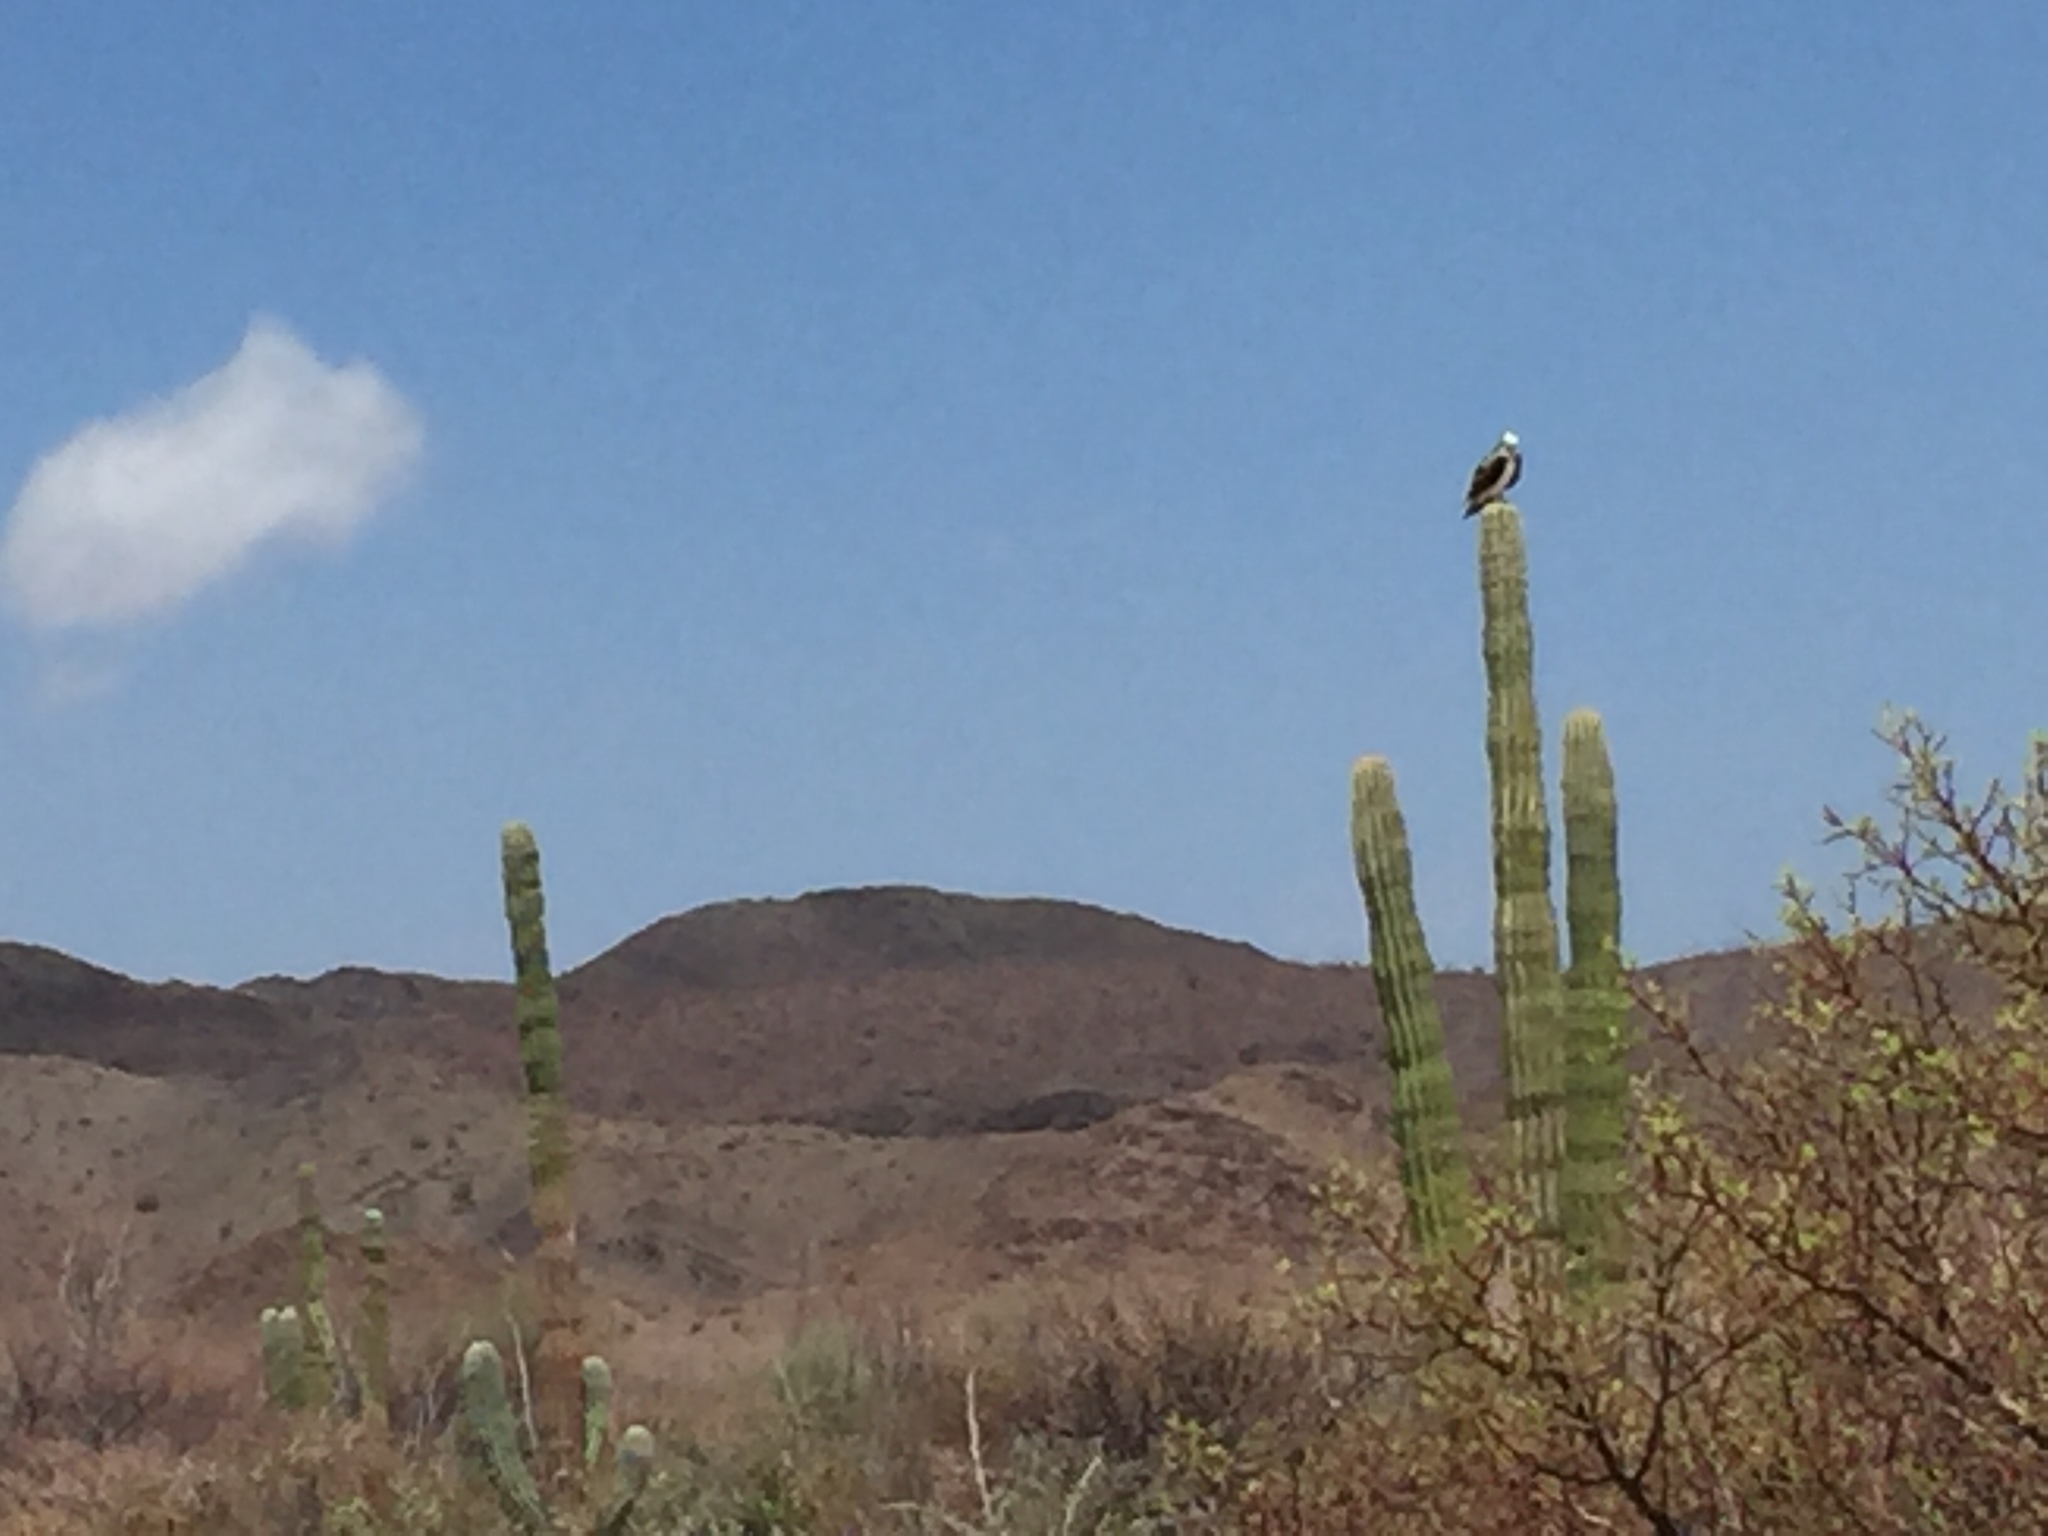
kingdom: Animalia
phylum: Chordata
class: Aves
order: Accipitriformes
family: Pandionidae
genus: Pandion
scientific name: Pandion haliaetus
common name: Osprey
